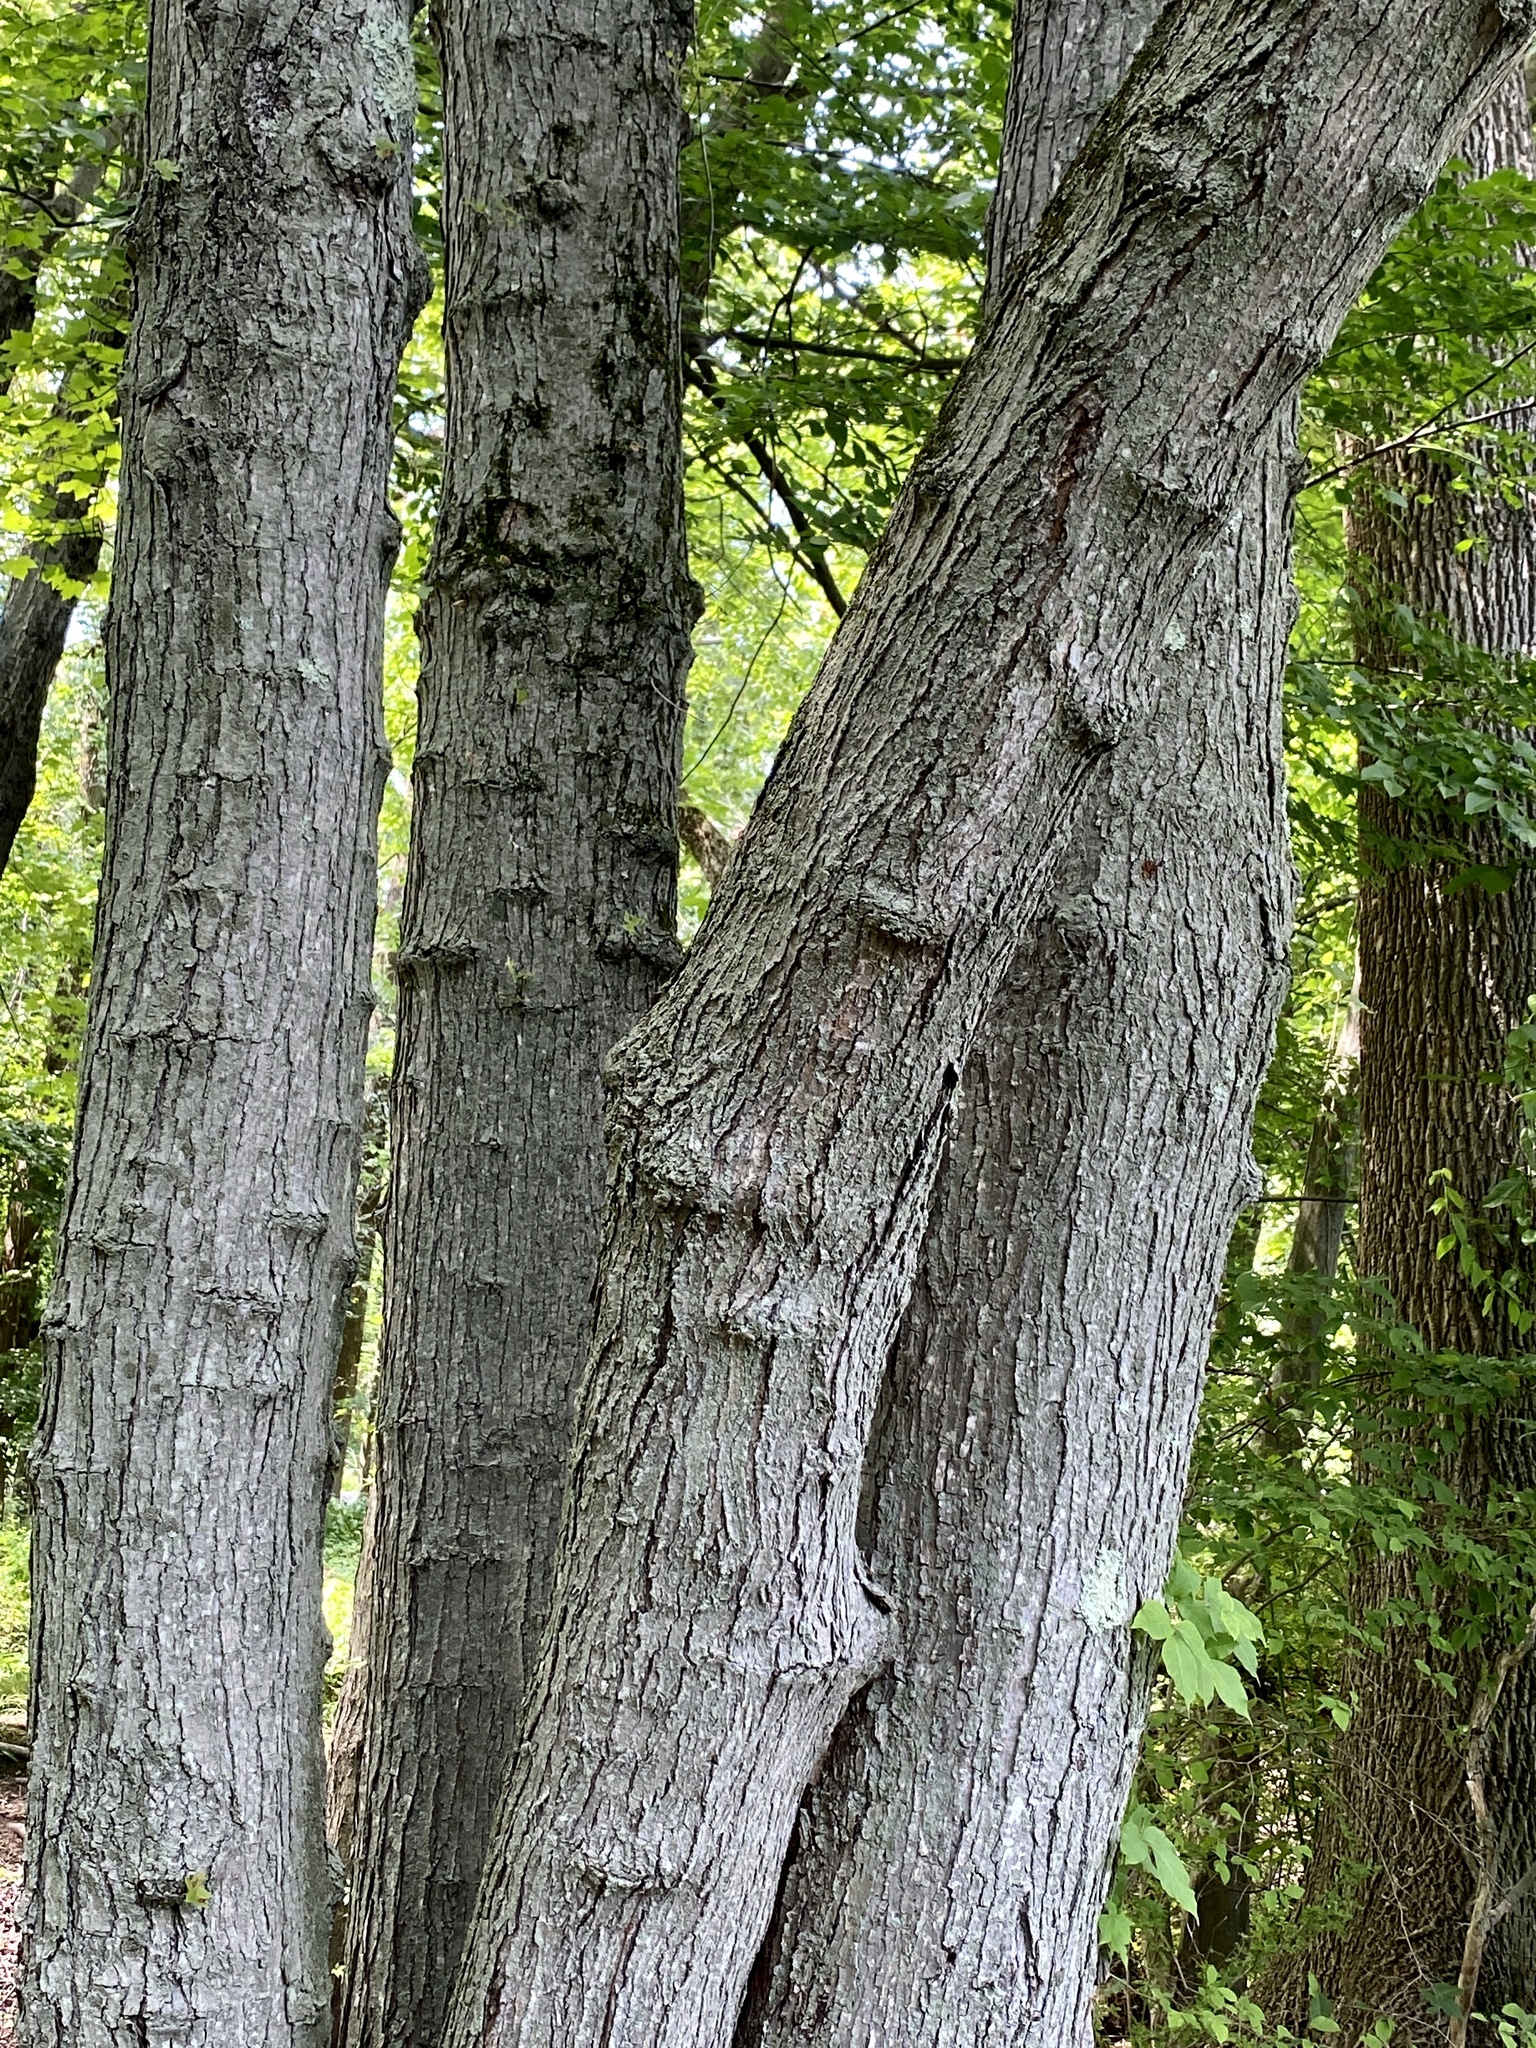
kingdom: Plantae
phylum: Tracheophyta
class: Magnoliopsida
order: Sapindales
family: Sapindaceae
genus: Acer
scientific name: Acer rubrum
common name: Red maple
